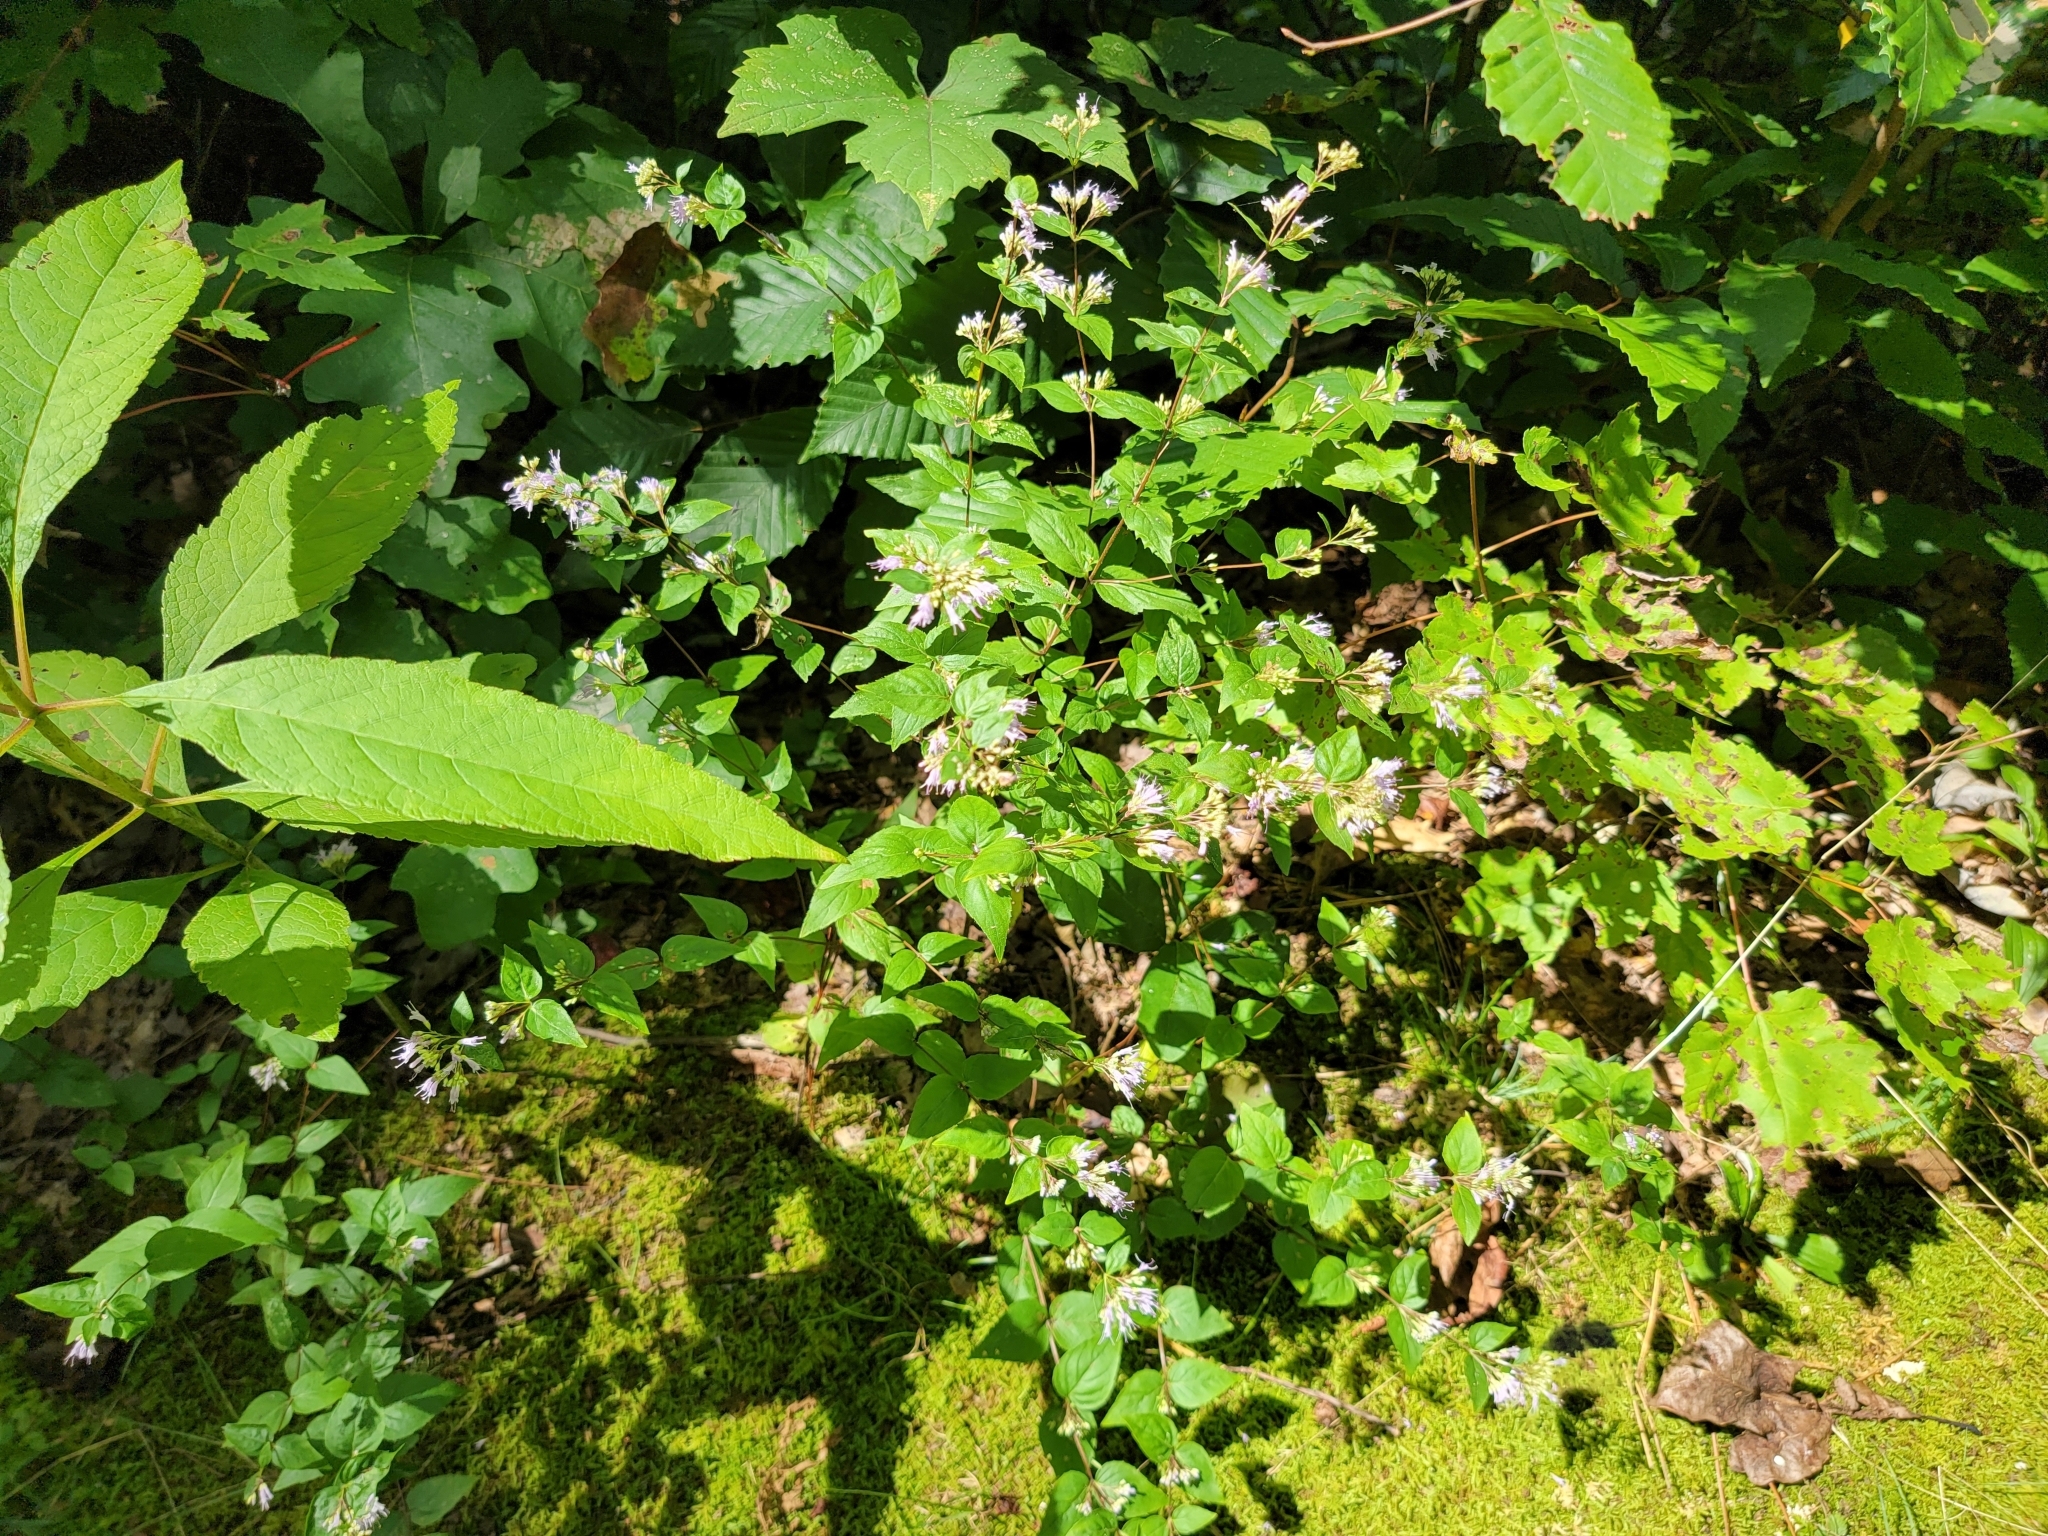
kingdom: Plantae
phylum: Tracheophyta
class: Magnoliopsida
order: Lamiales
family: Lamiaceae
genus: Cunila
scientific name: Cunila origanoides
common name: American dittany
